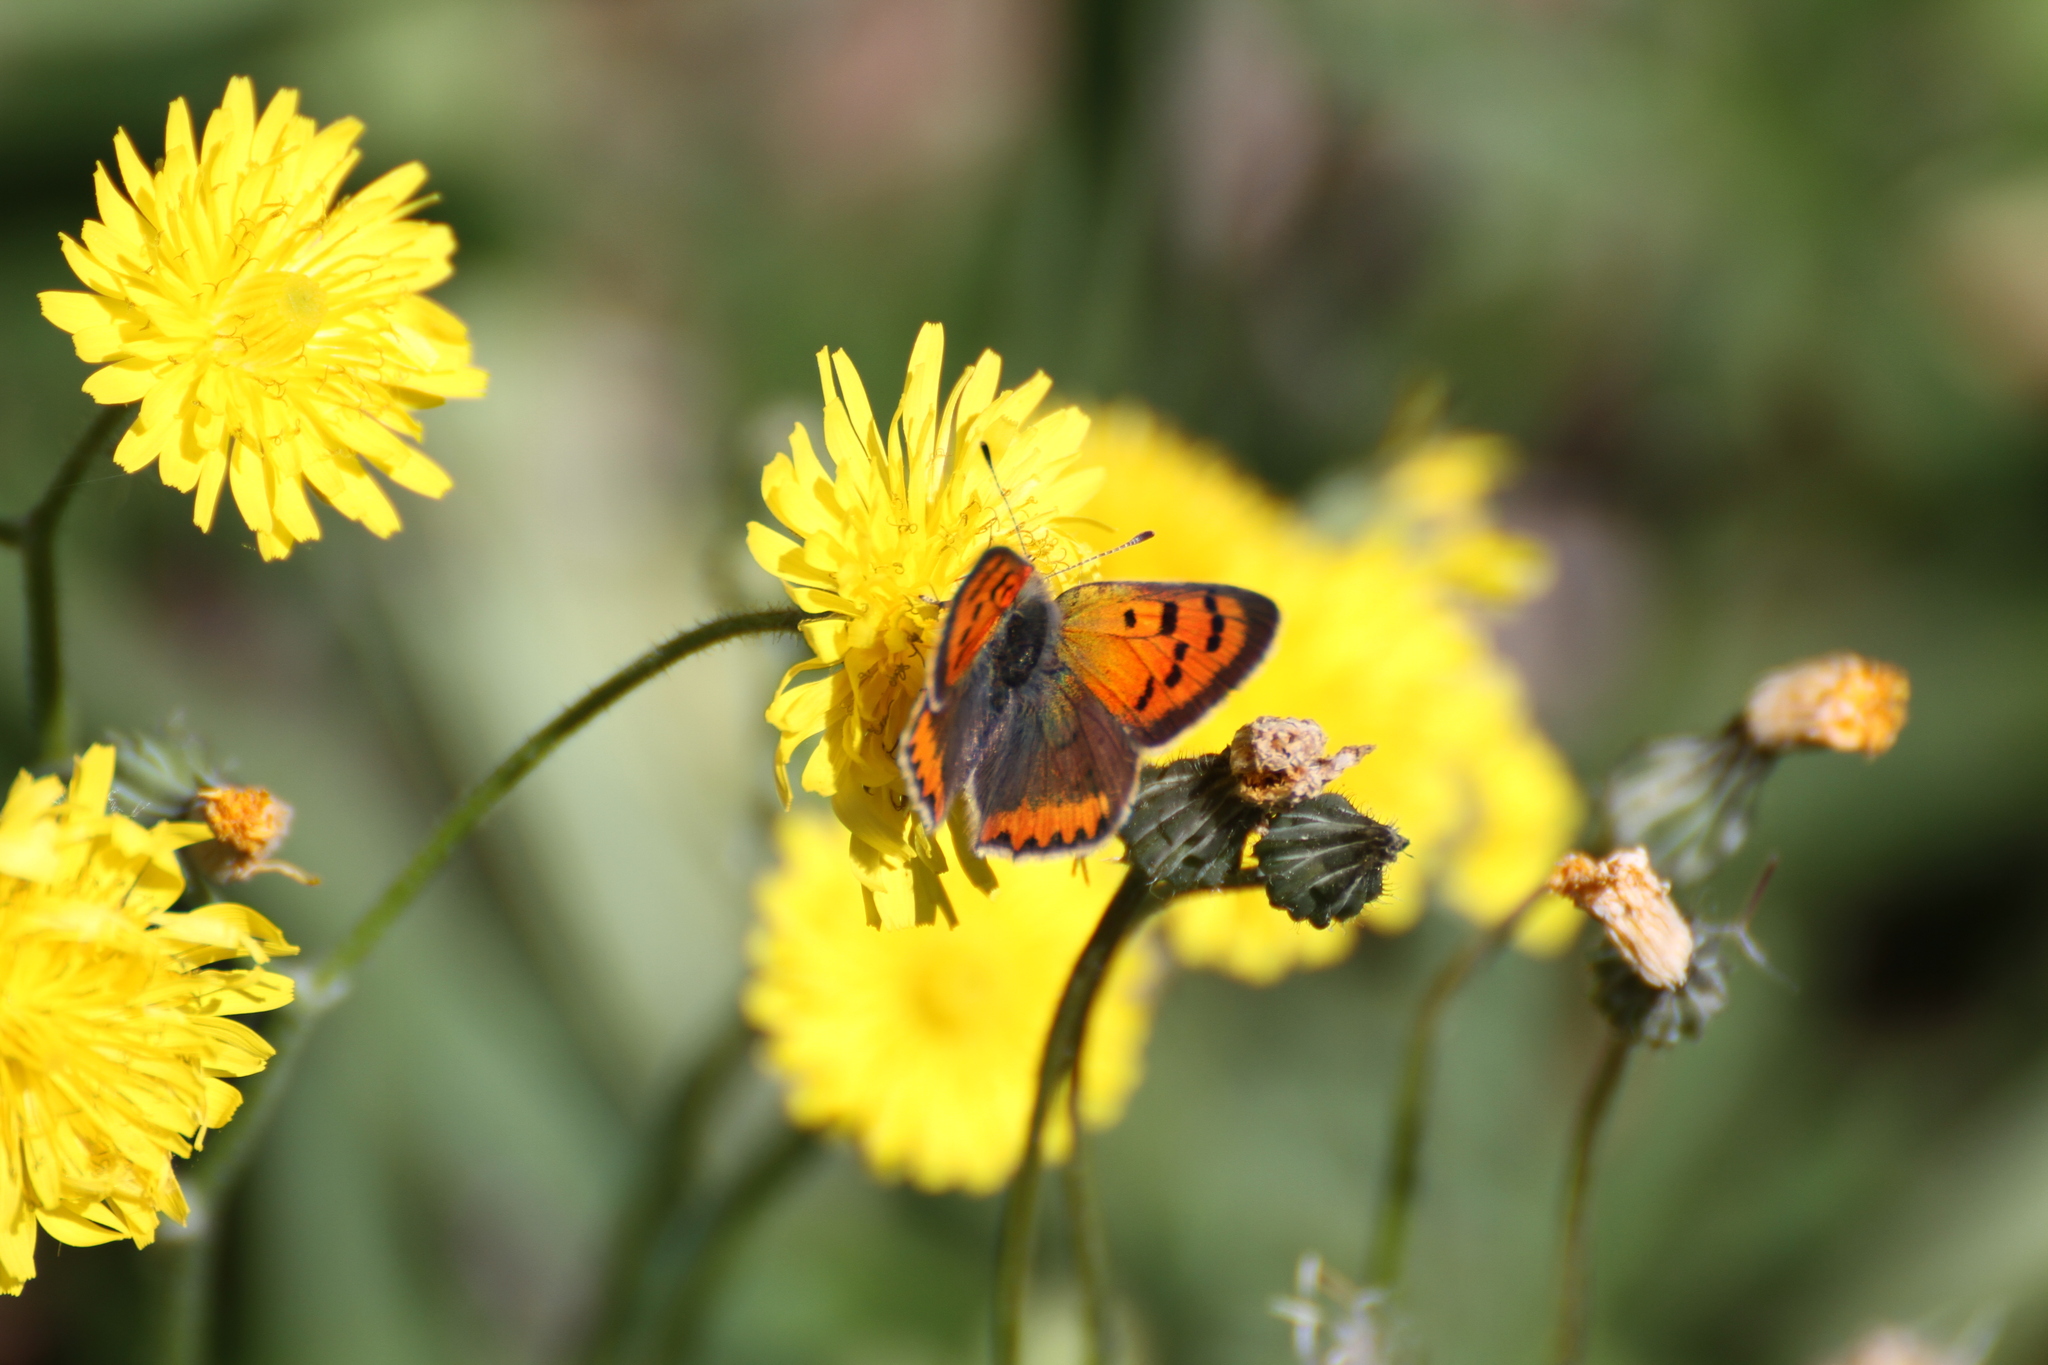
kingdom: Animalia
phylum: Arthropoda
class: Insecta
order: Lepidoptera
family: Lycaenidae
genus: Lycaena
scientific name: Lycaena phlaeas
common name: Small copper
